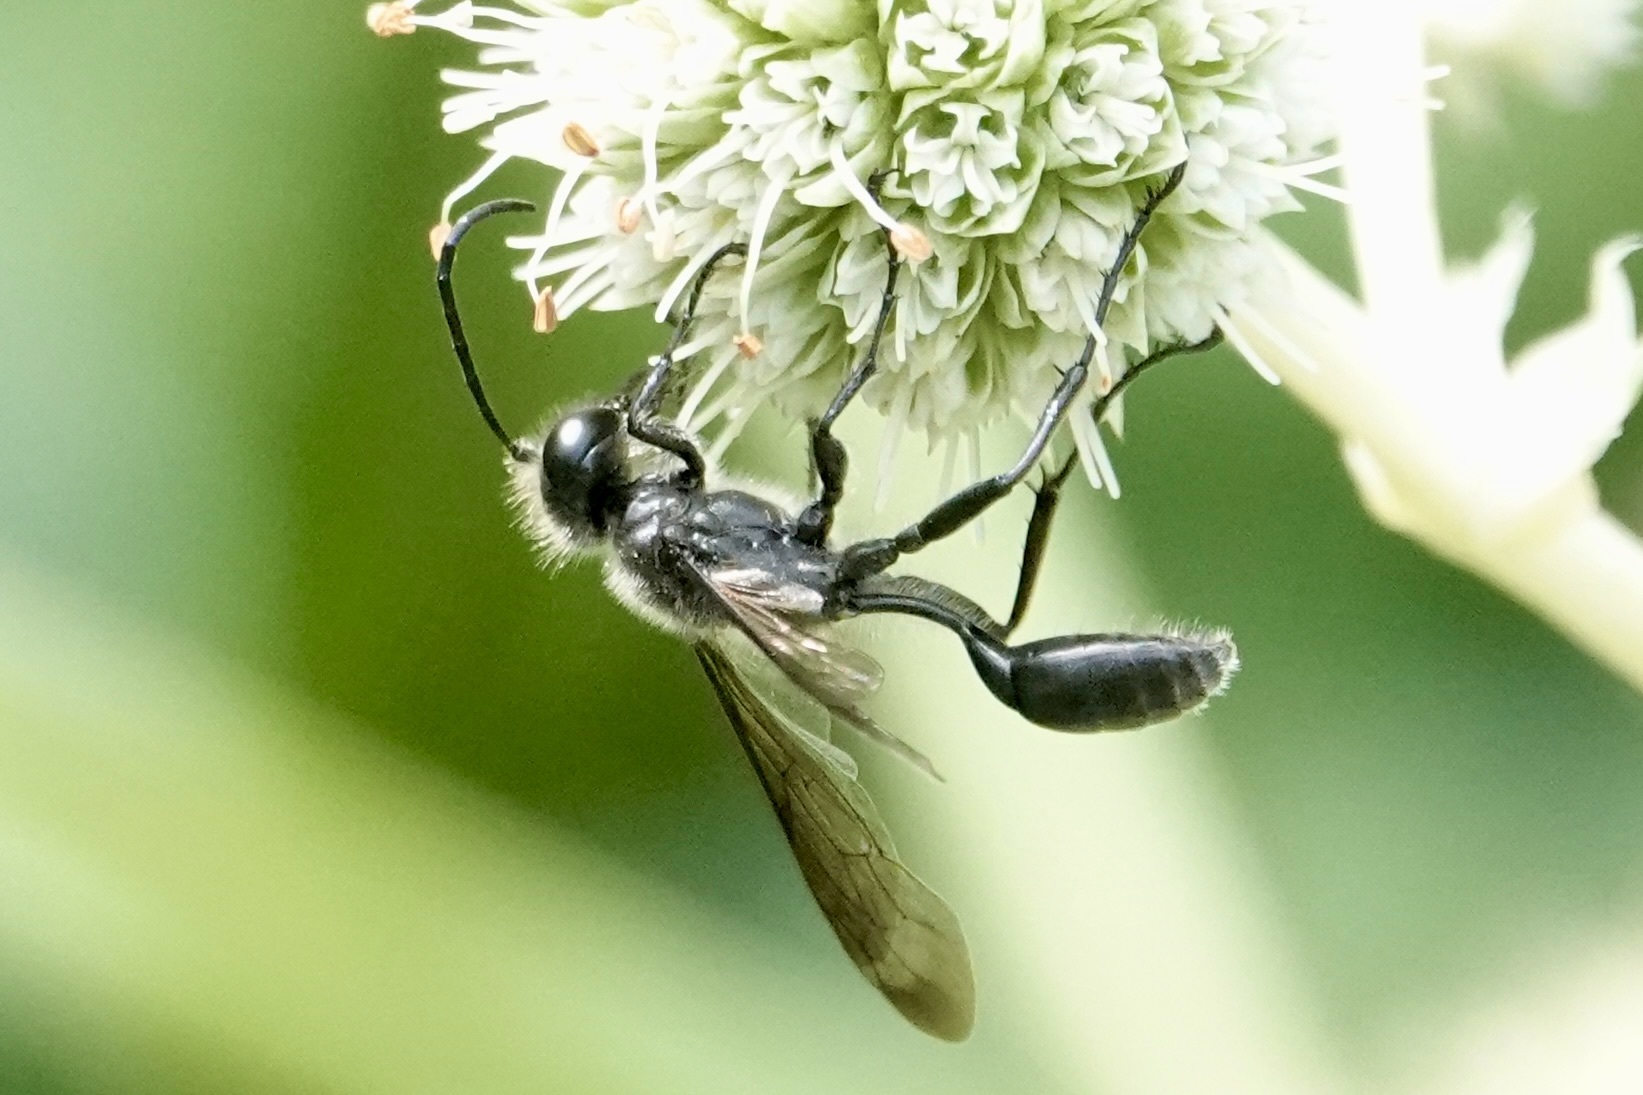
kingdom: Animalia
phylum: Arthropoda
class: Insecta
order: Hymenoptera
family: Sphecidae
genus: Isodontia
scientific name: Isodontia mexicana
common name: Mud dauber
